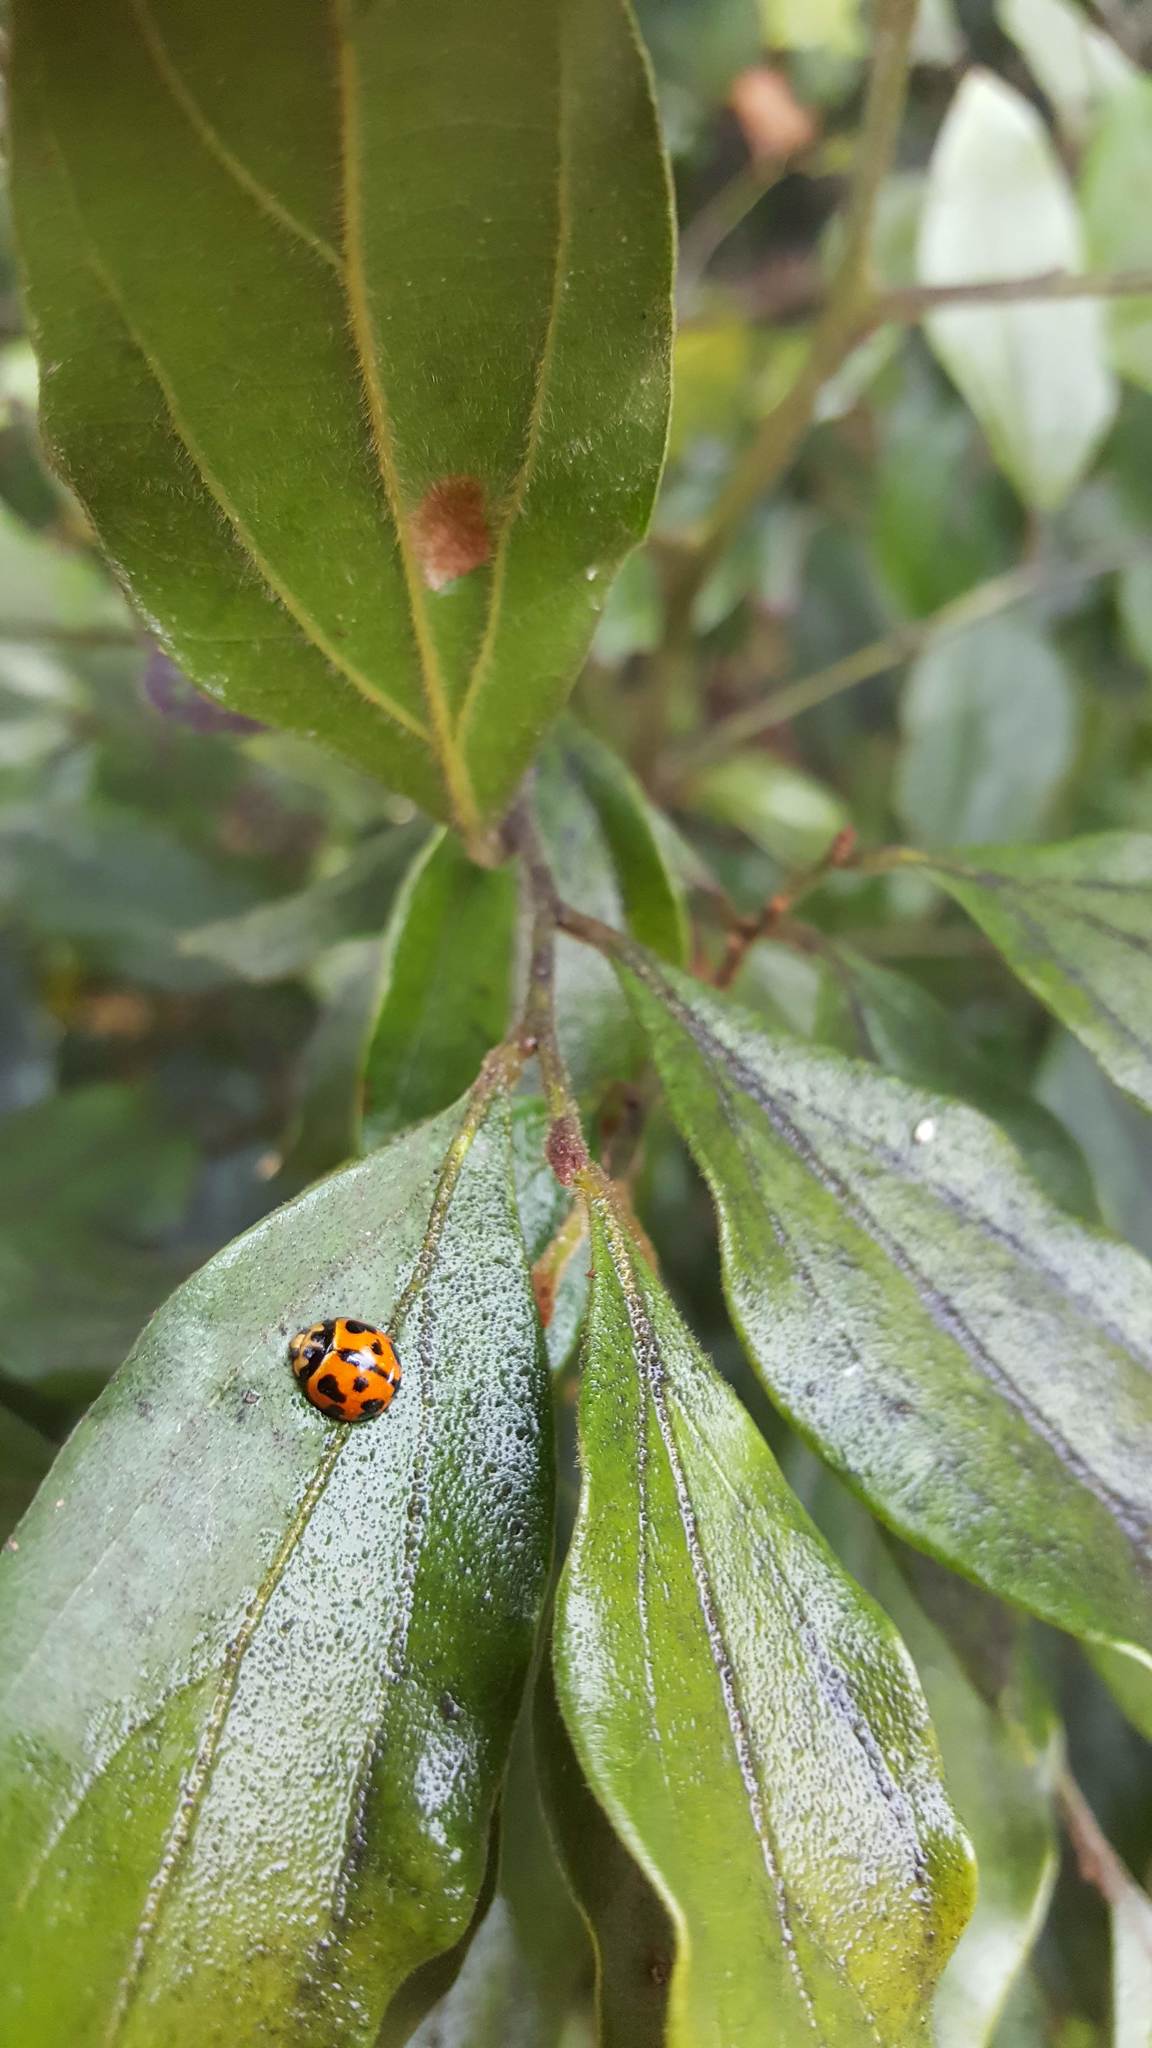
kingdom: Animalia
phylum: Arthropoda
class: Insecta
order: Coleoptera
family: Coccinellidae
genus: Coelophora
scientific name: Coelophora inaequalis
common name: Common australian lady beetle
